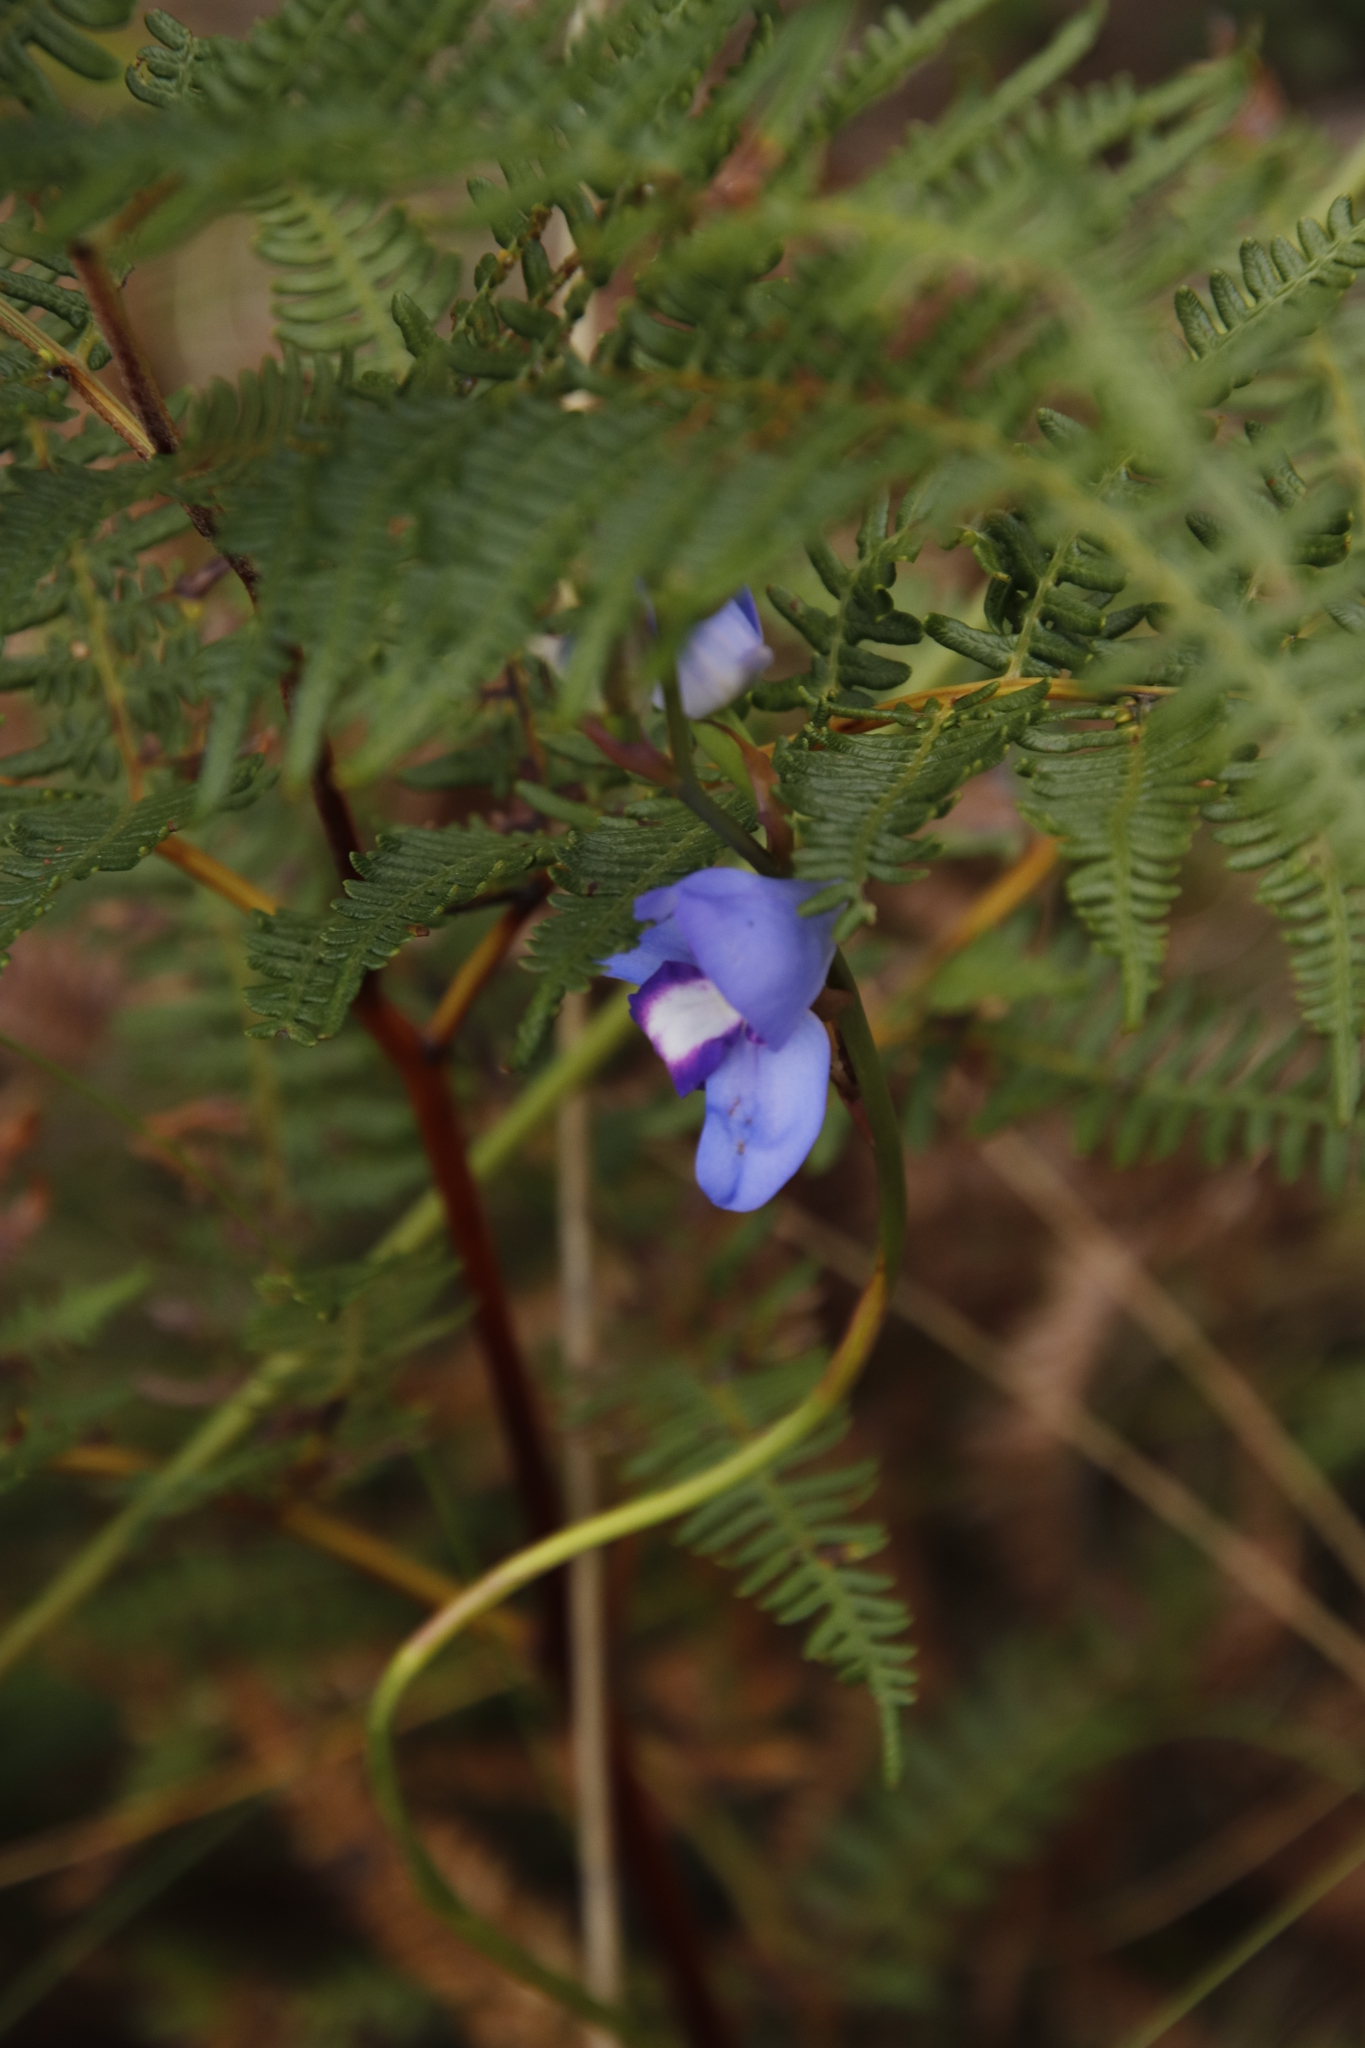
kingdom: Plantae
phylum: Tracheophyta
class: Liliopsida
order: Asparagales
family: Orchidaceae
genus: Disa
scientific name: Disa graminifolia
